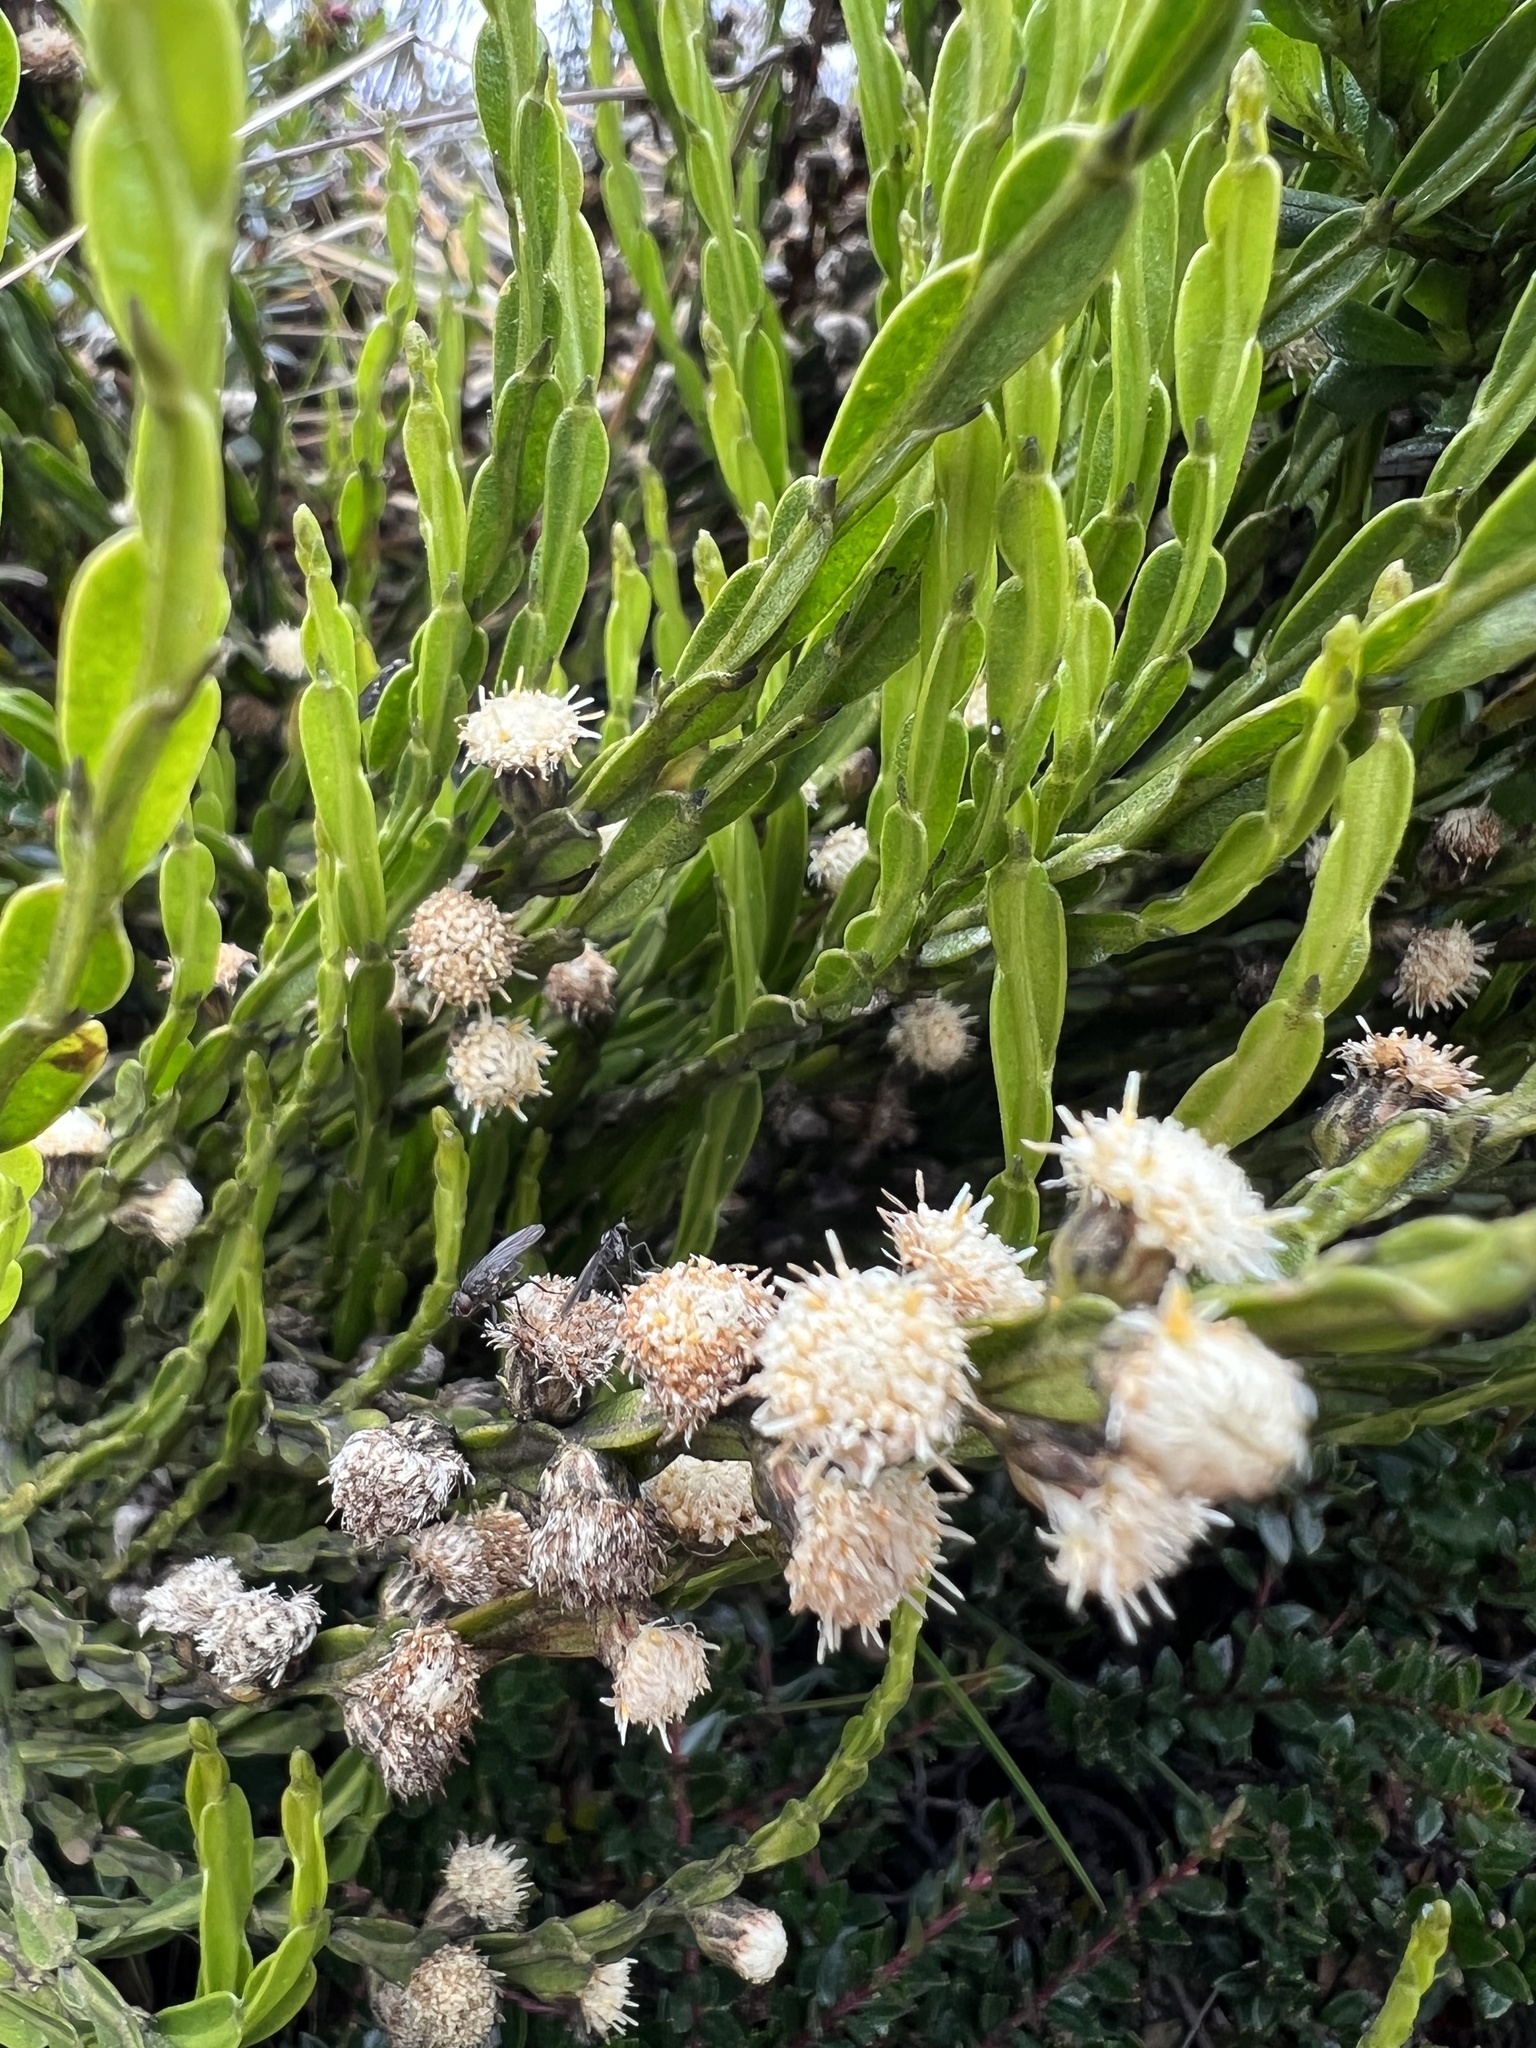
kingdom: Plantae
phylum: Tracheophyta
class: Magnoliopsida
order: Asterales
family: Asteraceae
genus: Baccharis
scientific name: Baccharis genistelloides
